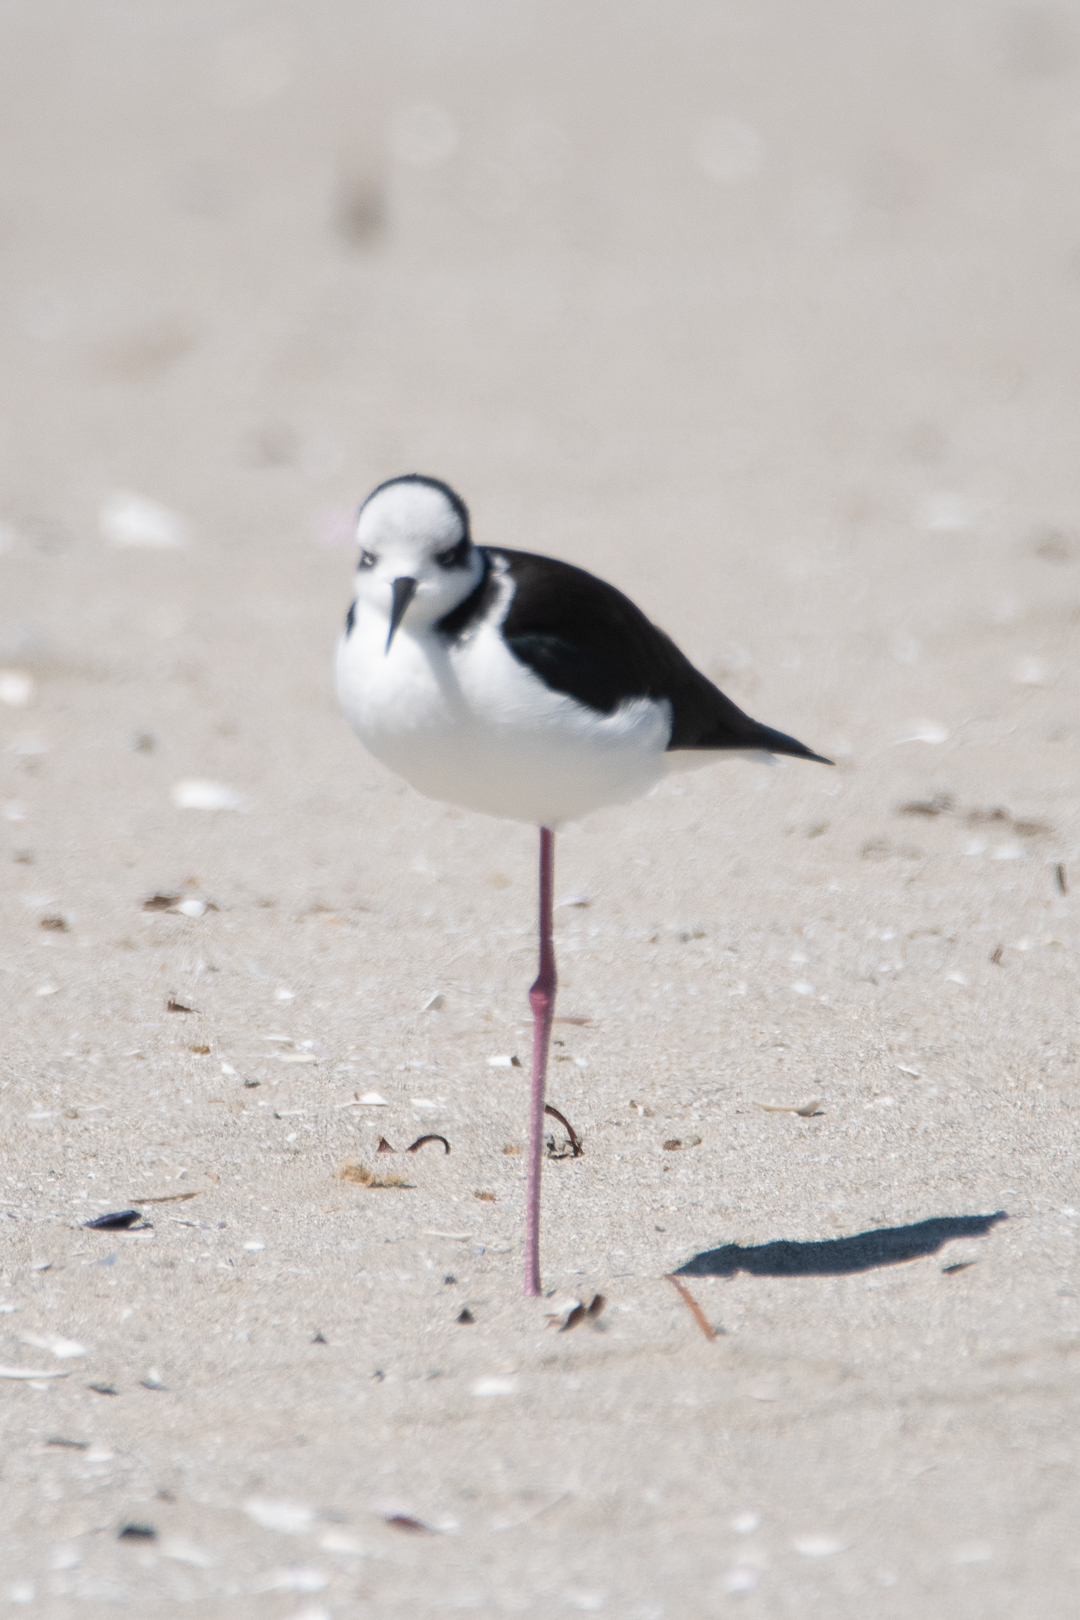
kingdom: Animalia
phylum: Chordata
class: Aves
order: Charadriiformes
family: Recurvirostridae
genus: Himantopus
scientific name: Himantopus mexicanus
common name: Black-necked stilt
